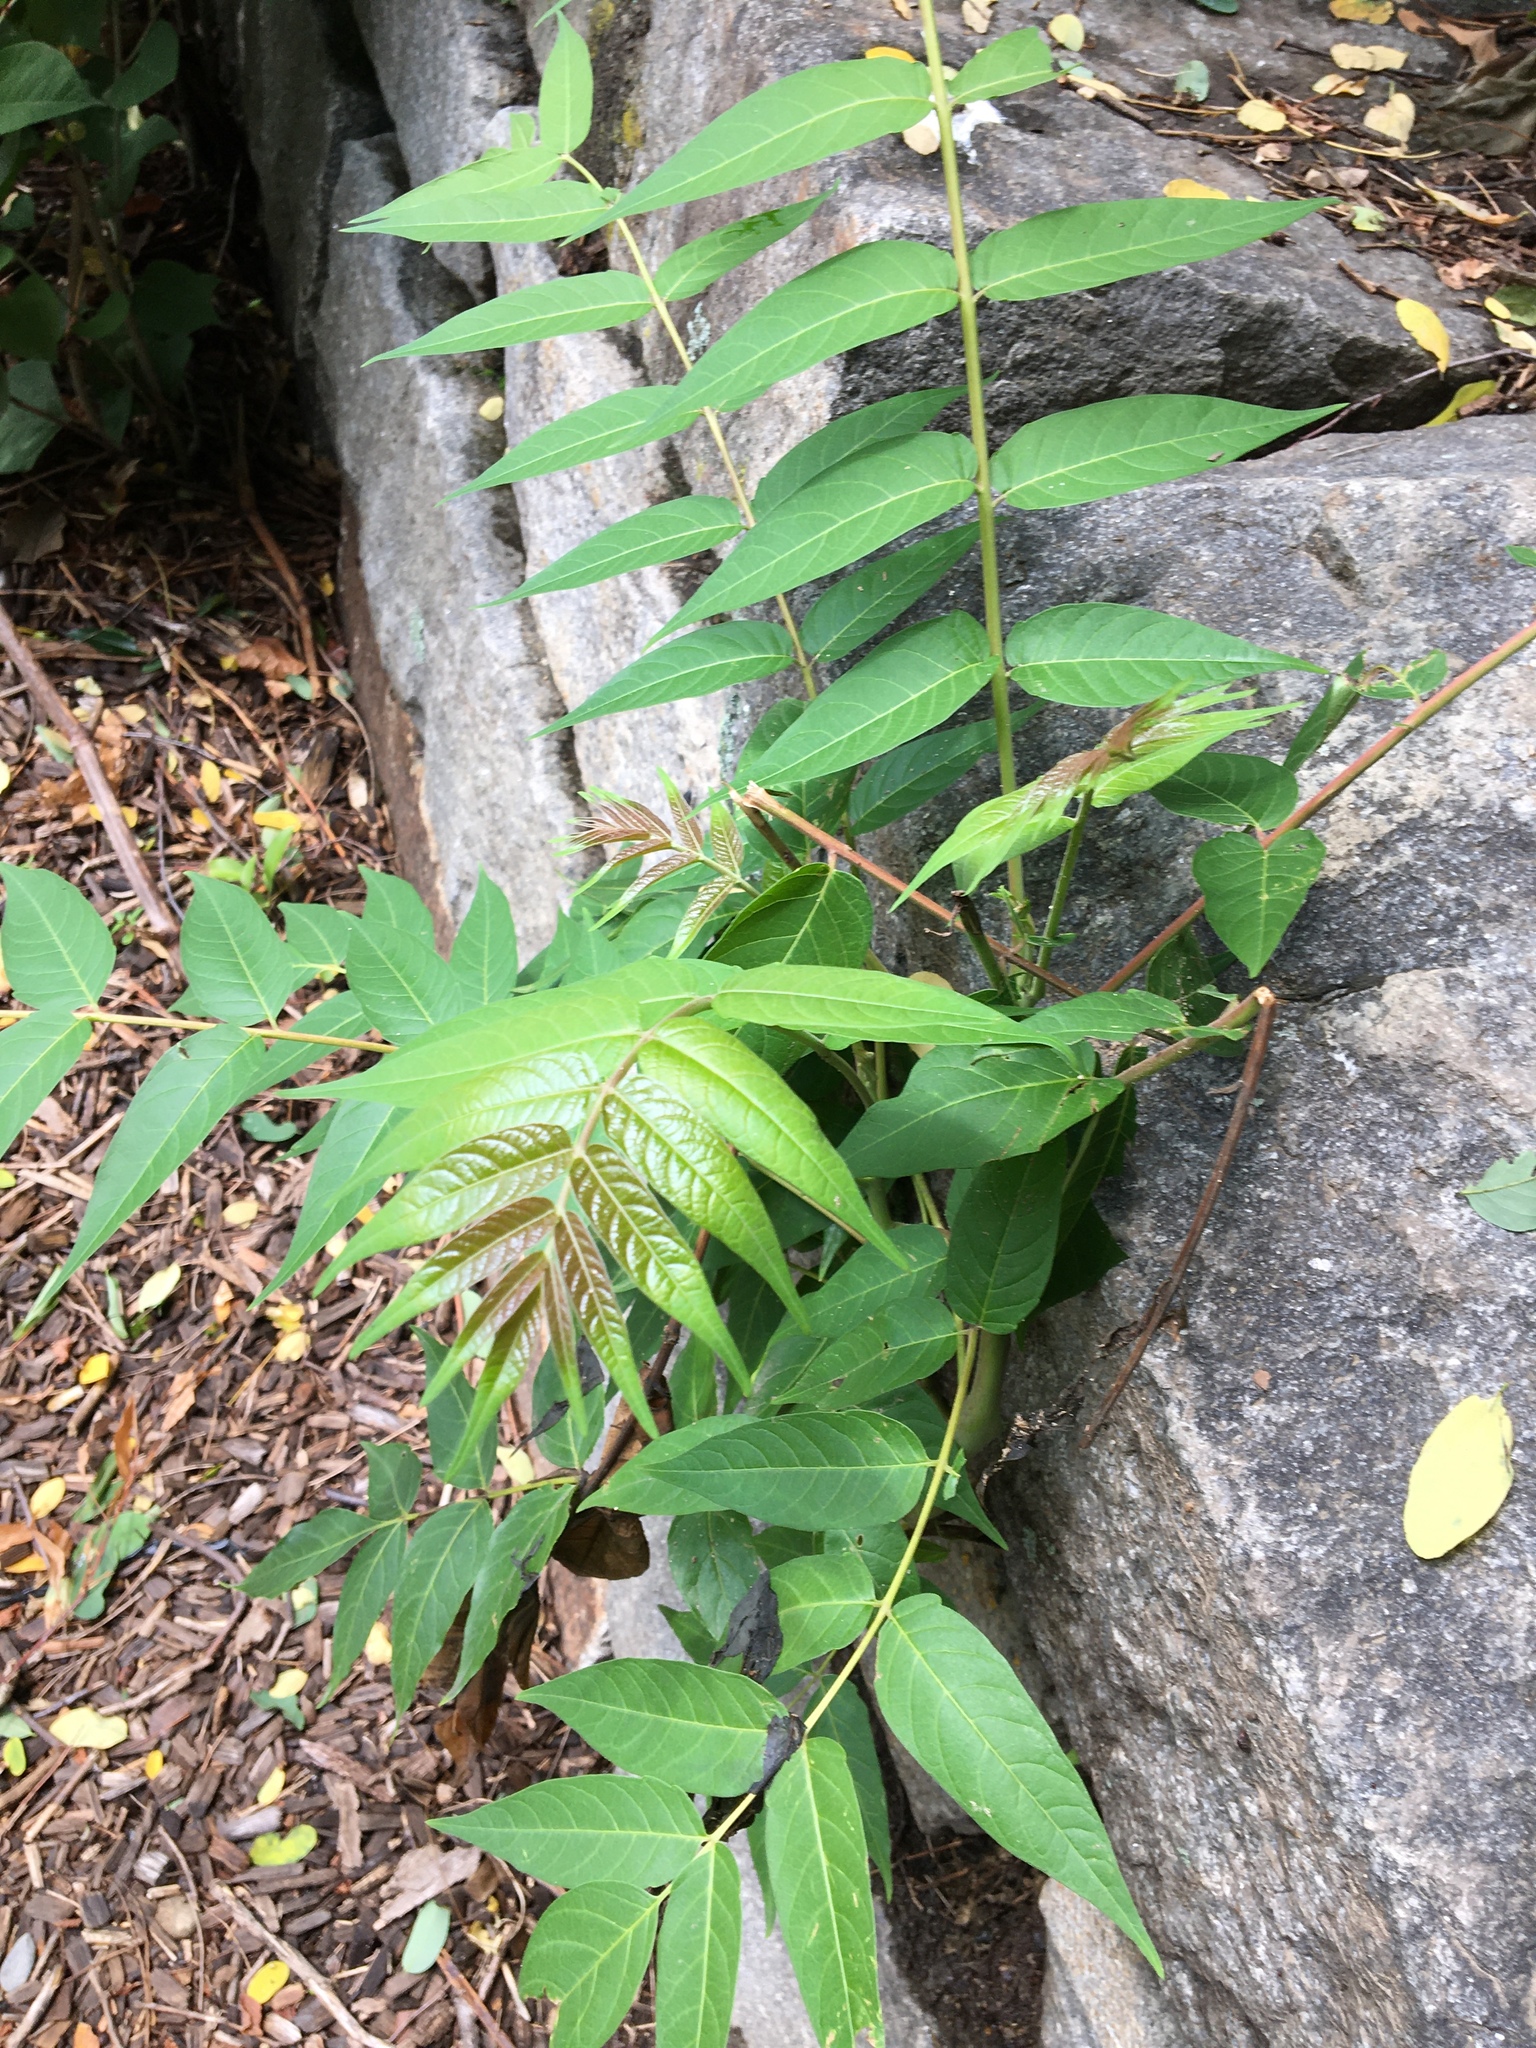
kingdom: Plantae
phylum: Tracheophyta
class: Magnoliopsida
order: Sapindales
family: Simaroubaceae
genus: Ailanthus
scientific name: Ailanthus altissima
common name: Tree-of-heaven
